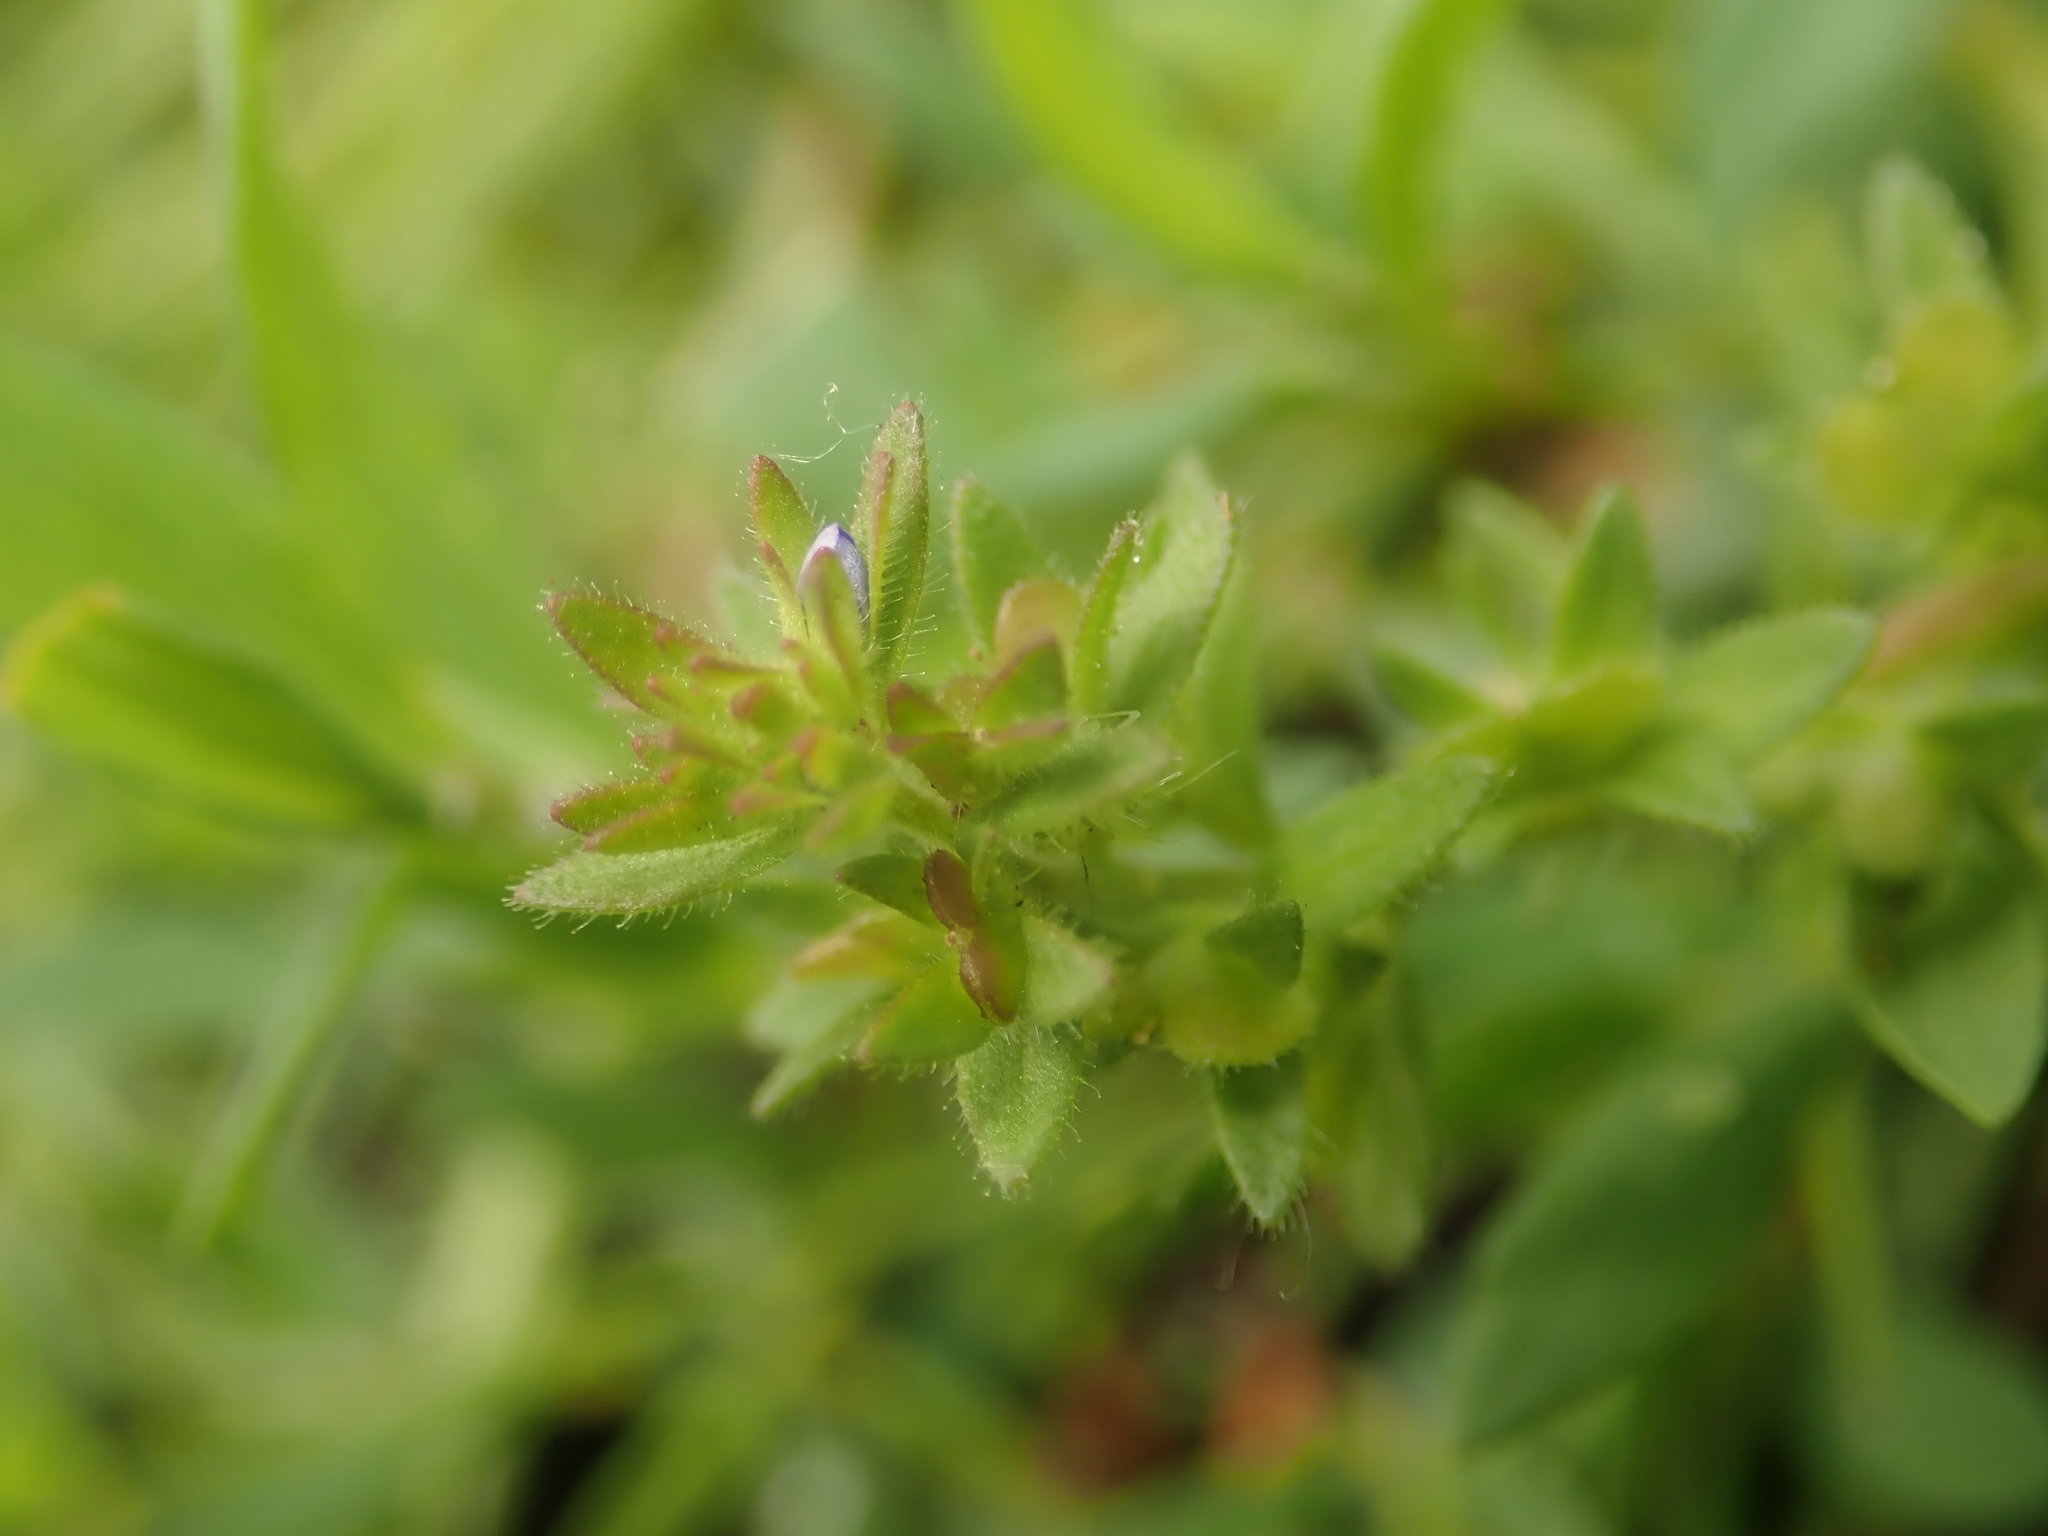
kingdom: Plantae
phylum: Tracheophyta
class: Magnoliopsida
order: Lamiales
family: Plantaginaceae
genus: Veronica
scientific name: Veronica arvensis
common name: Corn speedwell
